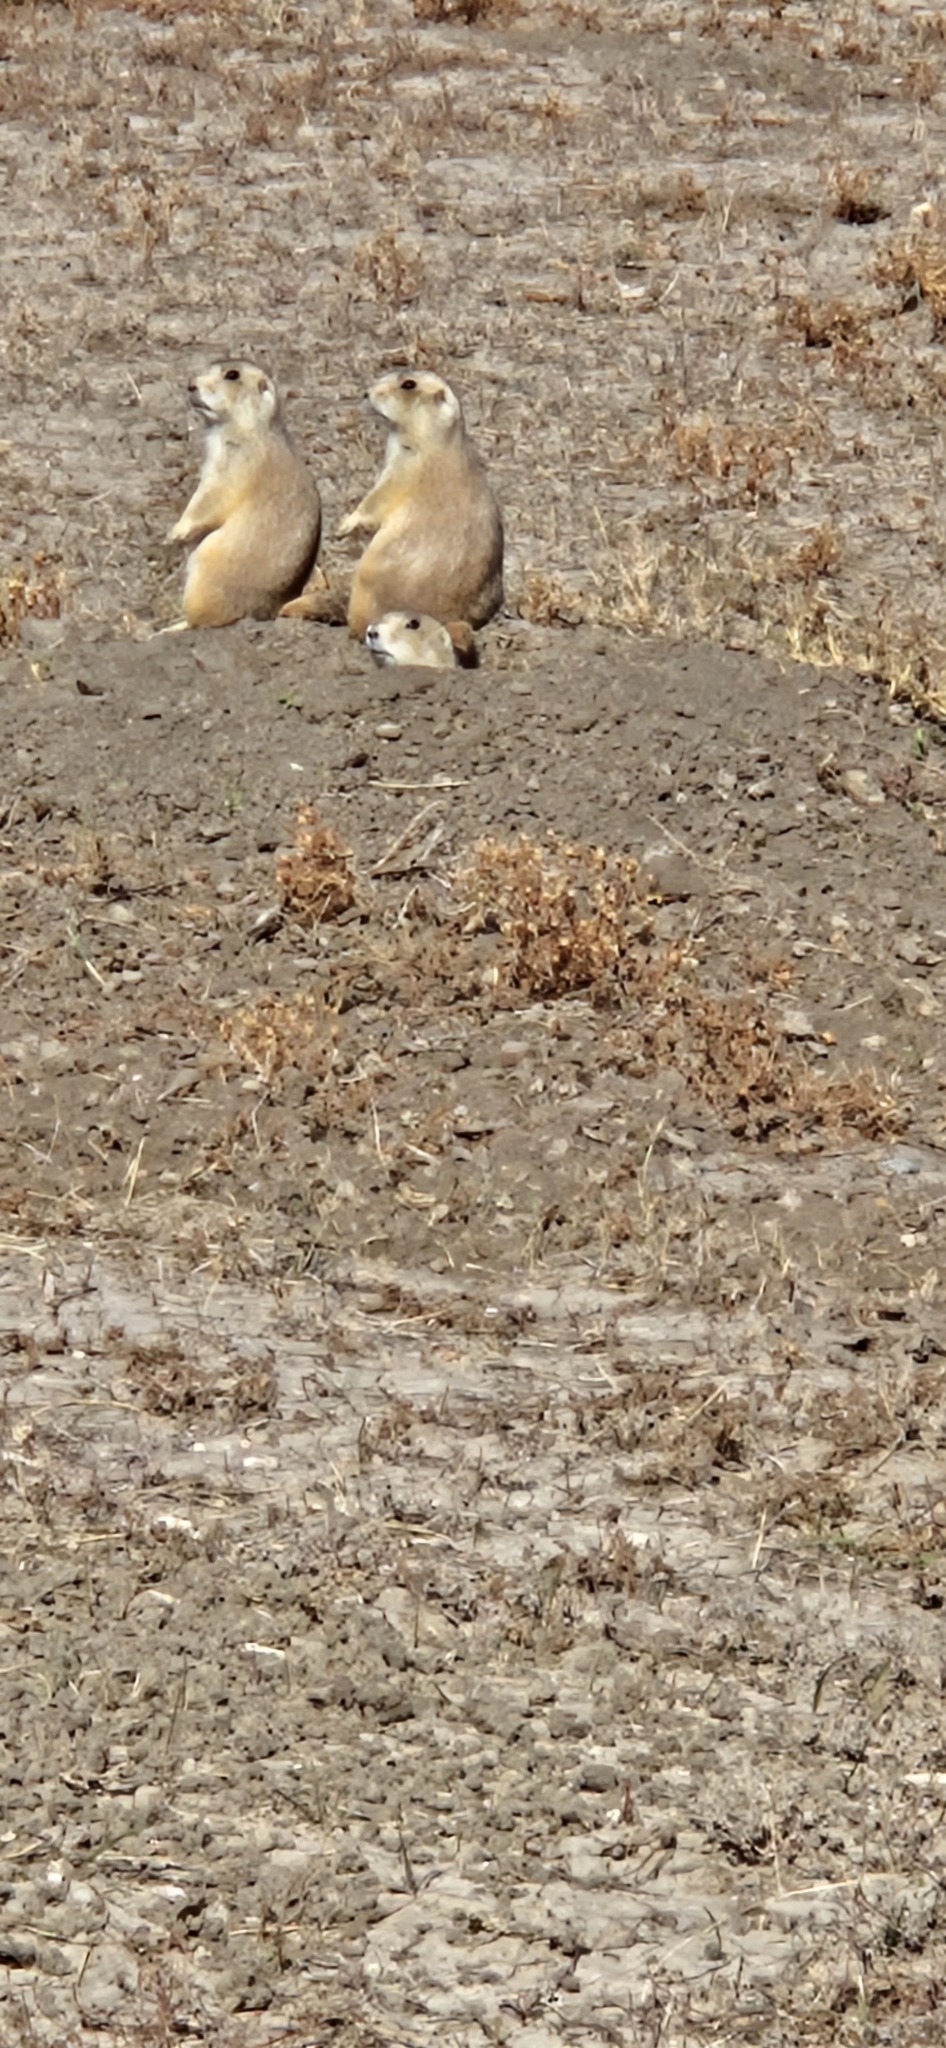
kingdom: Animalia
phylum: Chordata
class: Mammalia
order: Rodentia
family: Sciuridae
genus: Cynomys
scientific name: Cynomys ludovicianus
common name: Black-tailed prairie dog
